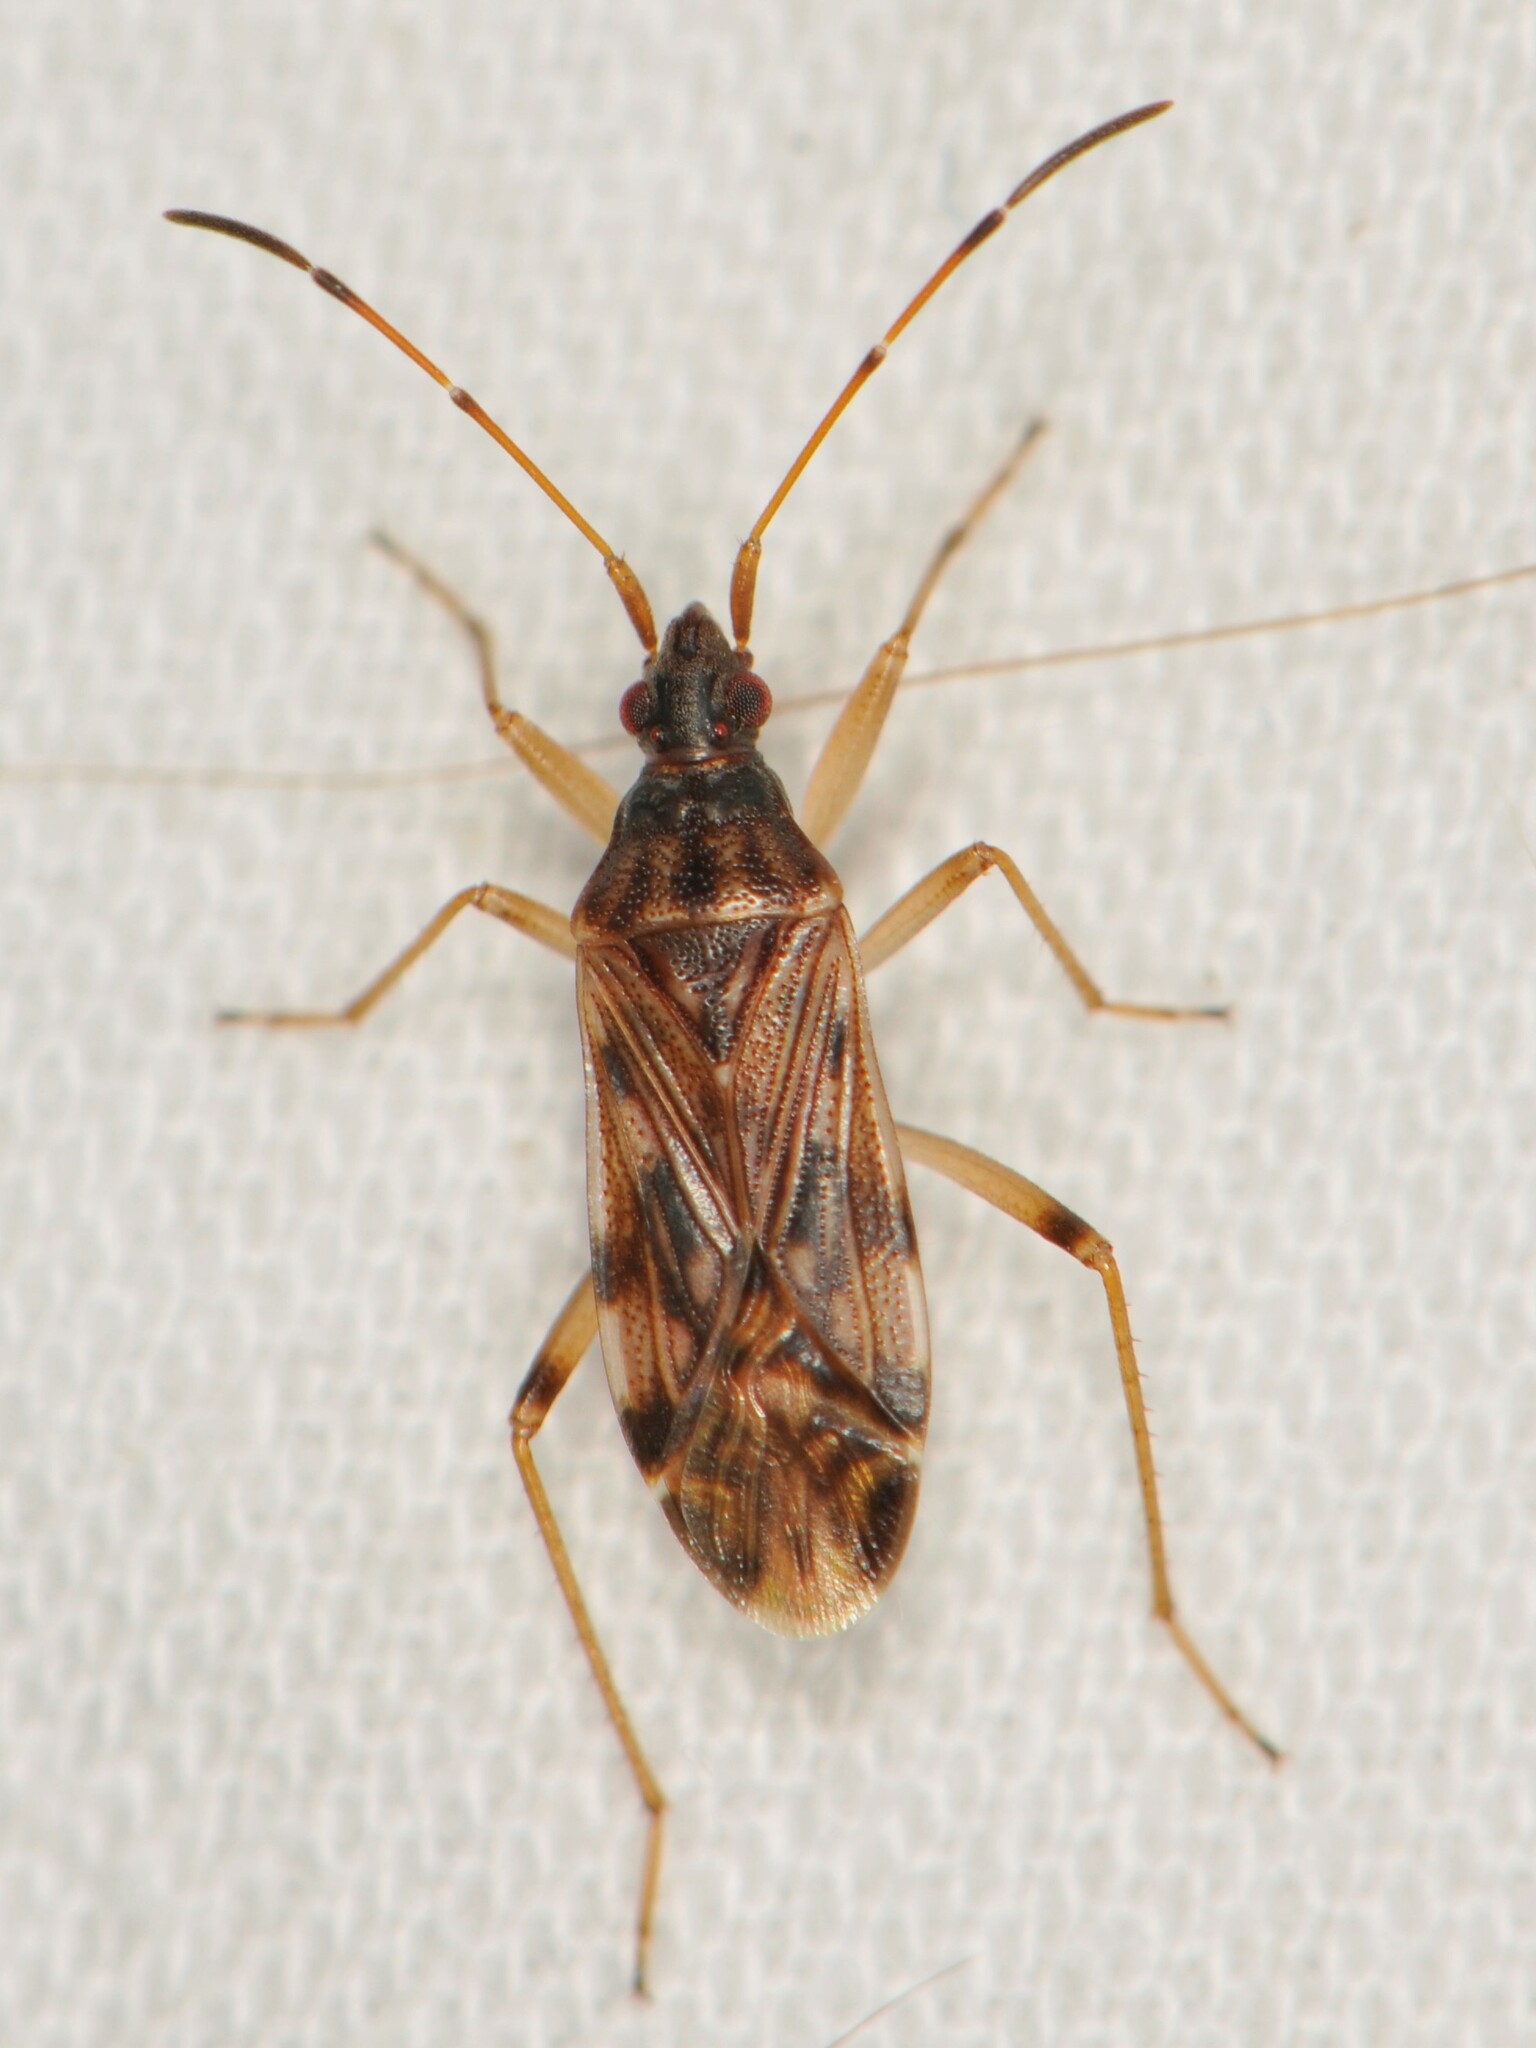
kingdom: Animalia
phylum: Arthropoda
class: Insecta
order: Hemiptera
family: Rhyparochromidae
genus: Ozophora
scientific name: Ozophora salsaverdeae
